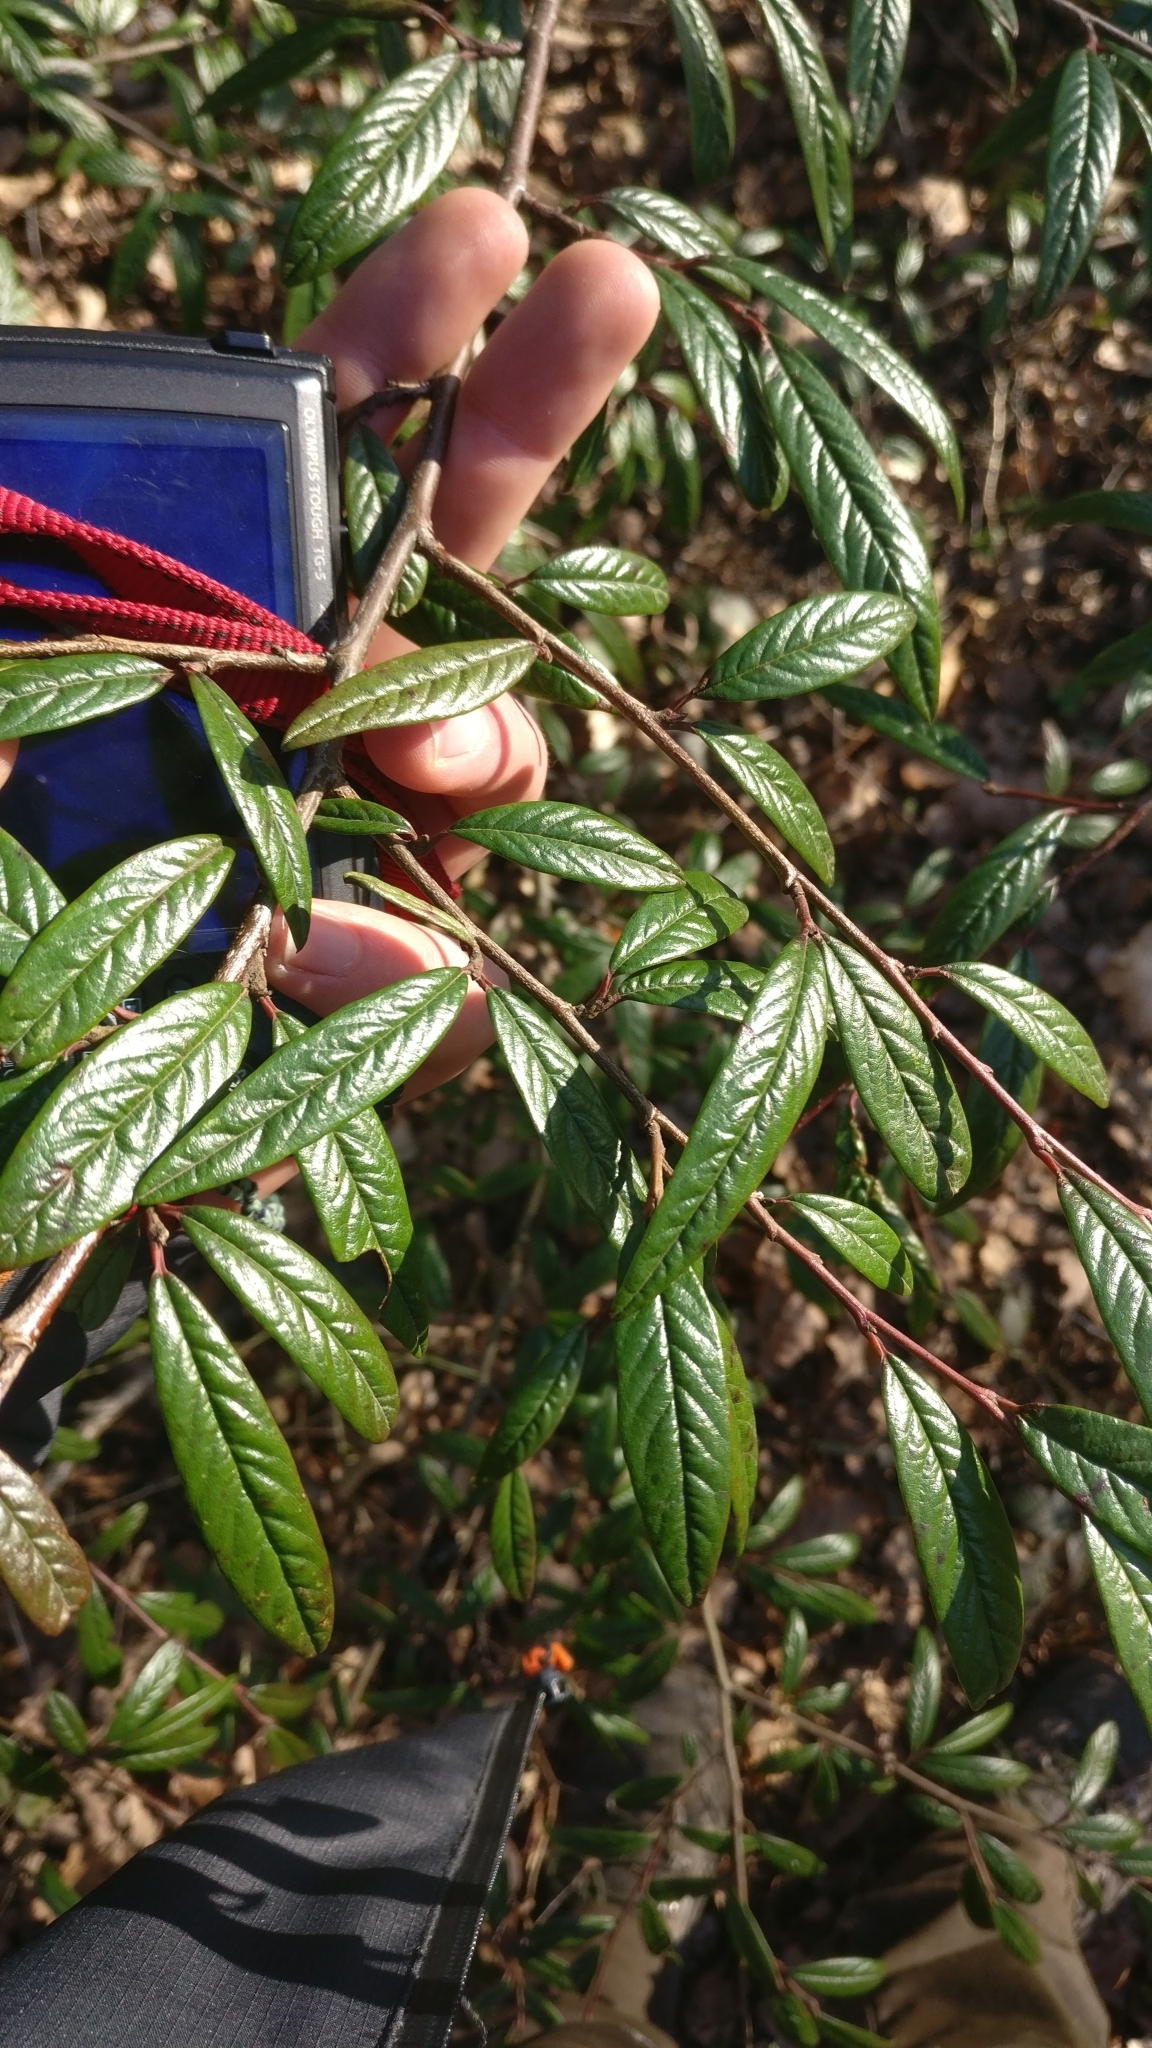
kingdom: Plantae
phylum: Tracheophyta
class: Magnoliopsida
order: Rosales
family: Rosaceae
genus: Cotoneaster
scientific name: Cotoneaster salicifolius
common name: Willow-leaved cotoneaster
